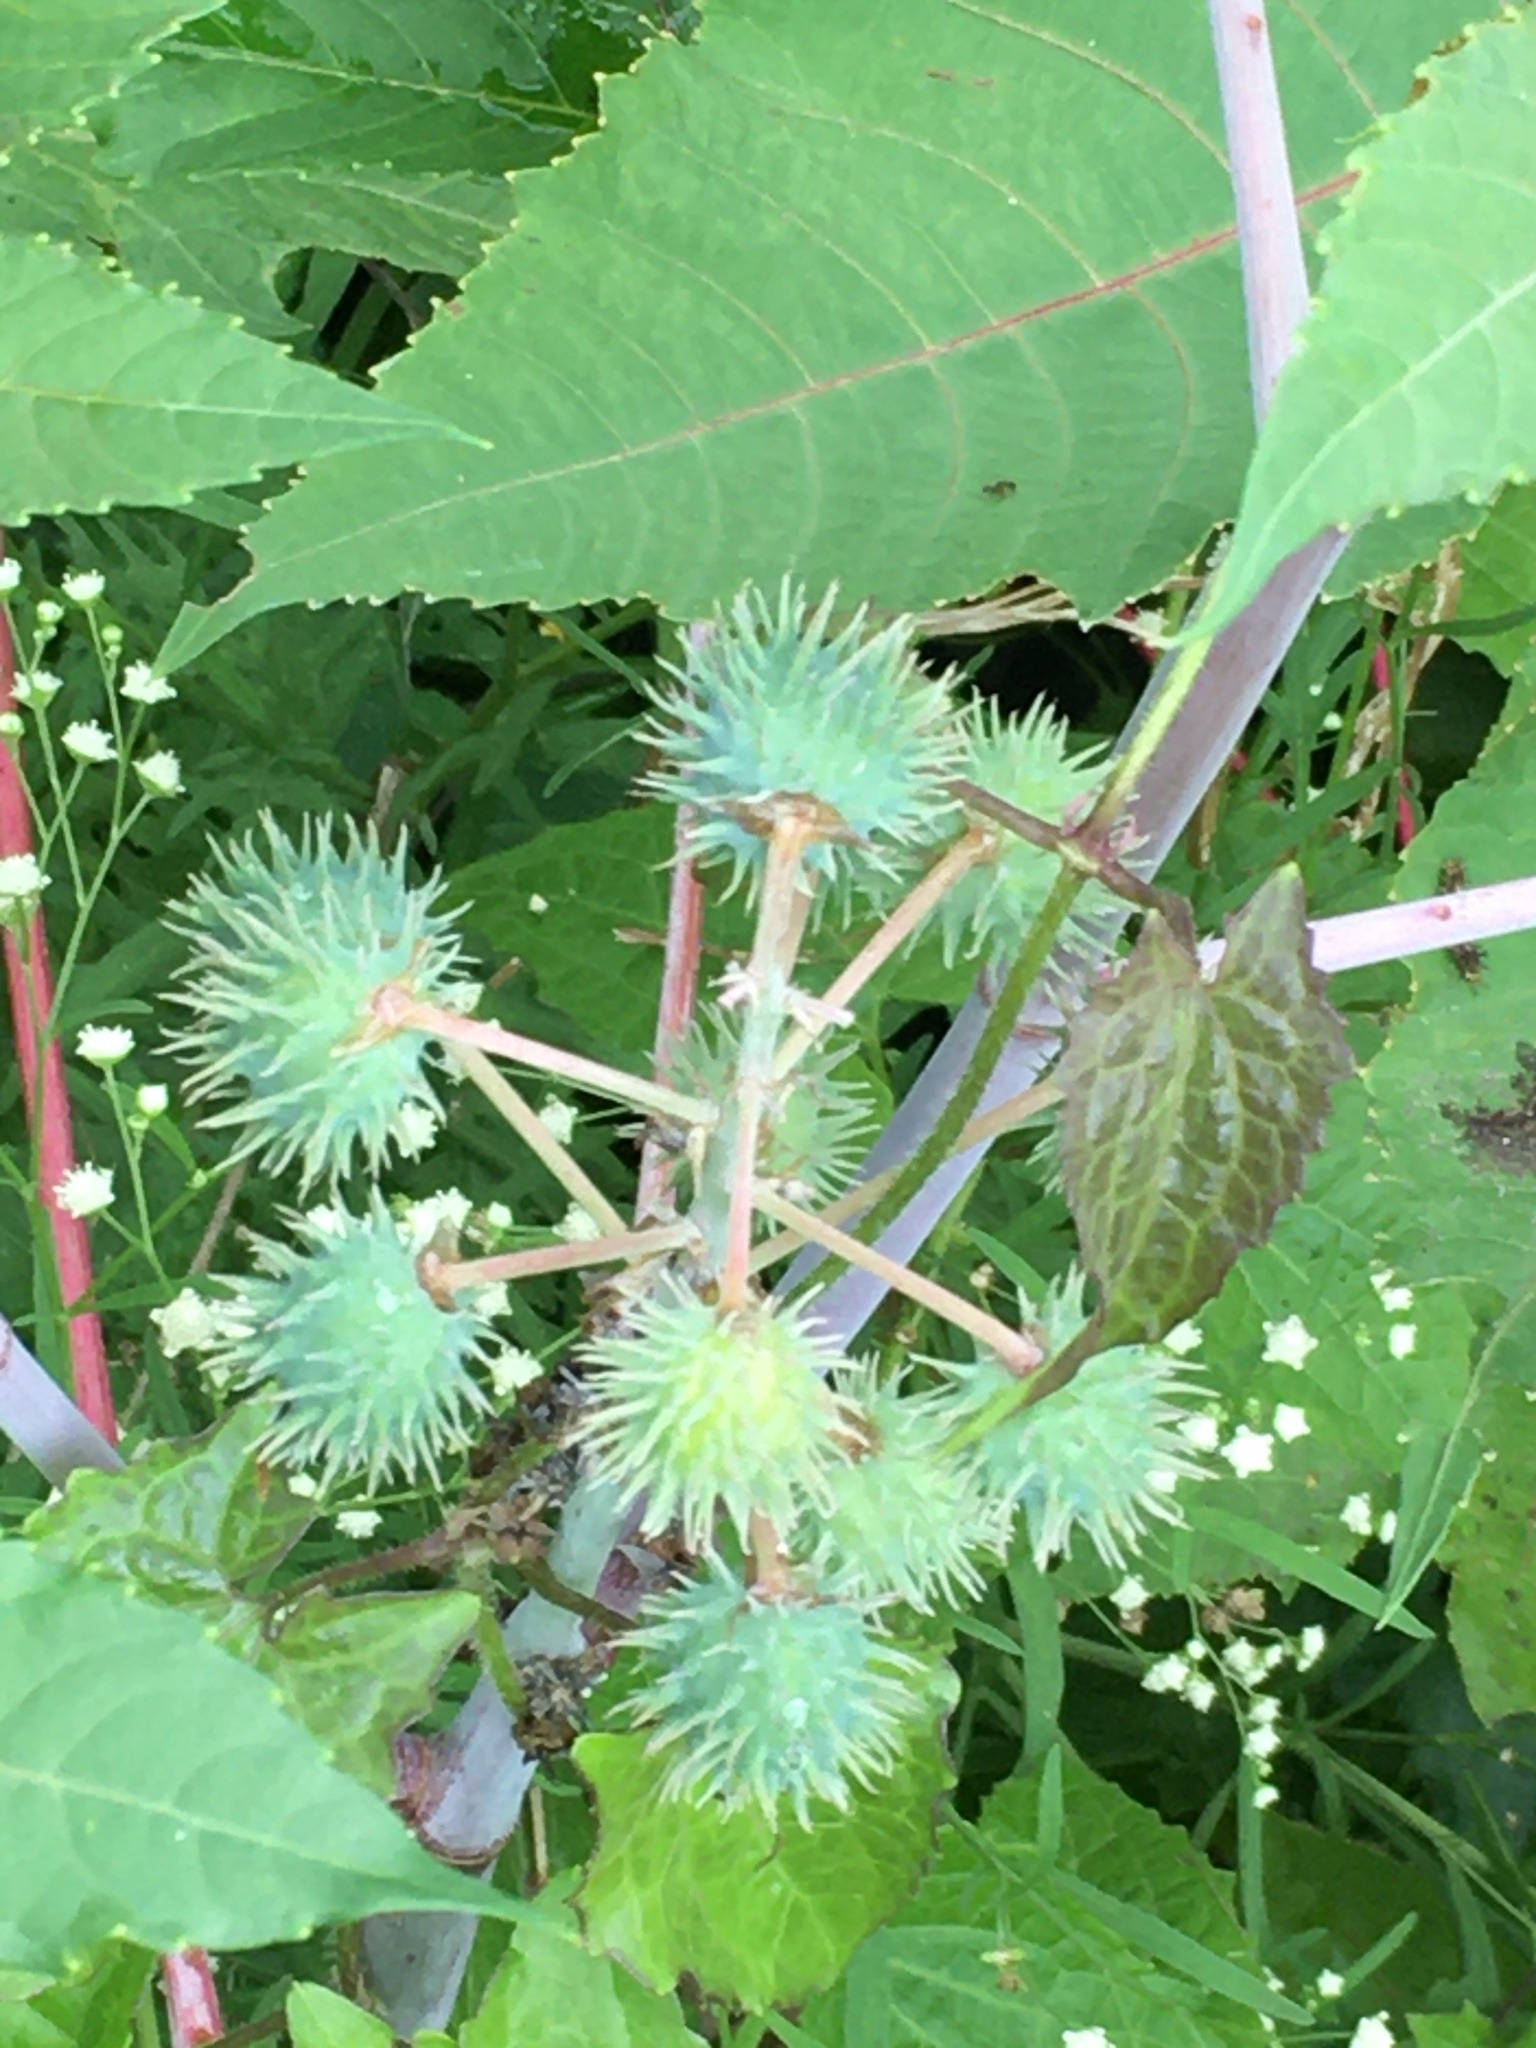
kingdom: Plantae
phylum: Tracheophyta
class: Magnoliopsida
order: Malpighiales
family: Euphorbiaceae
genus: Ricinus
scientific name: Ricinus communis
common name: Castor-oil-plant
